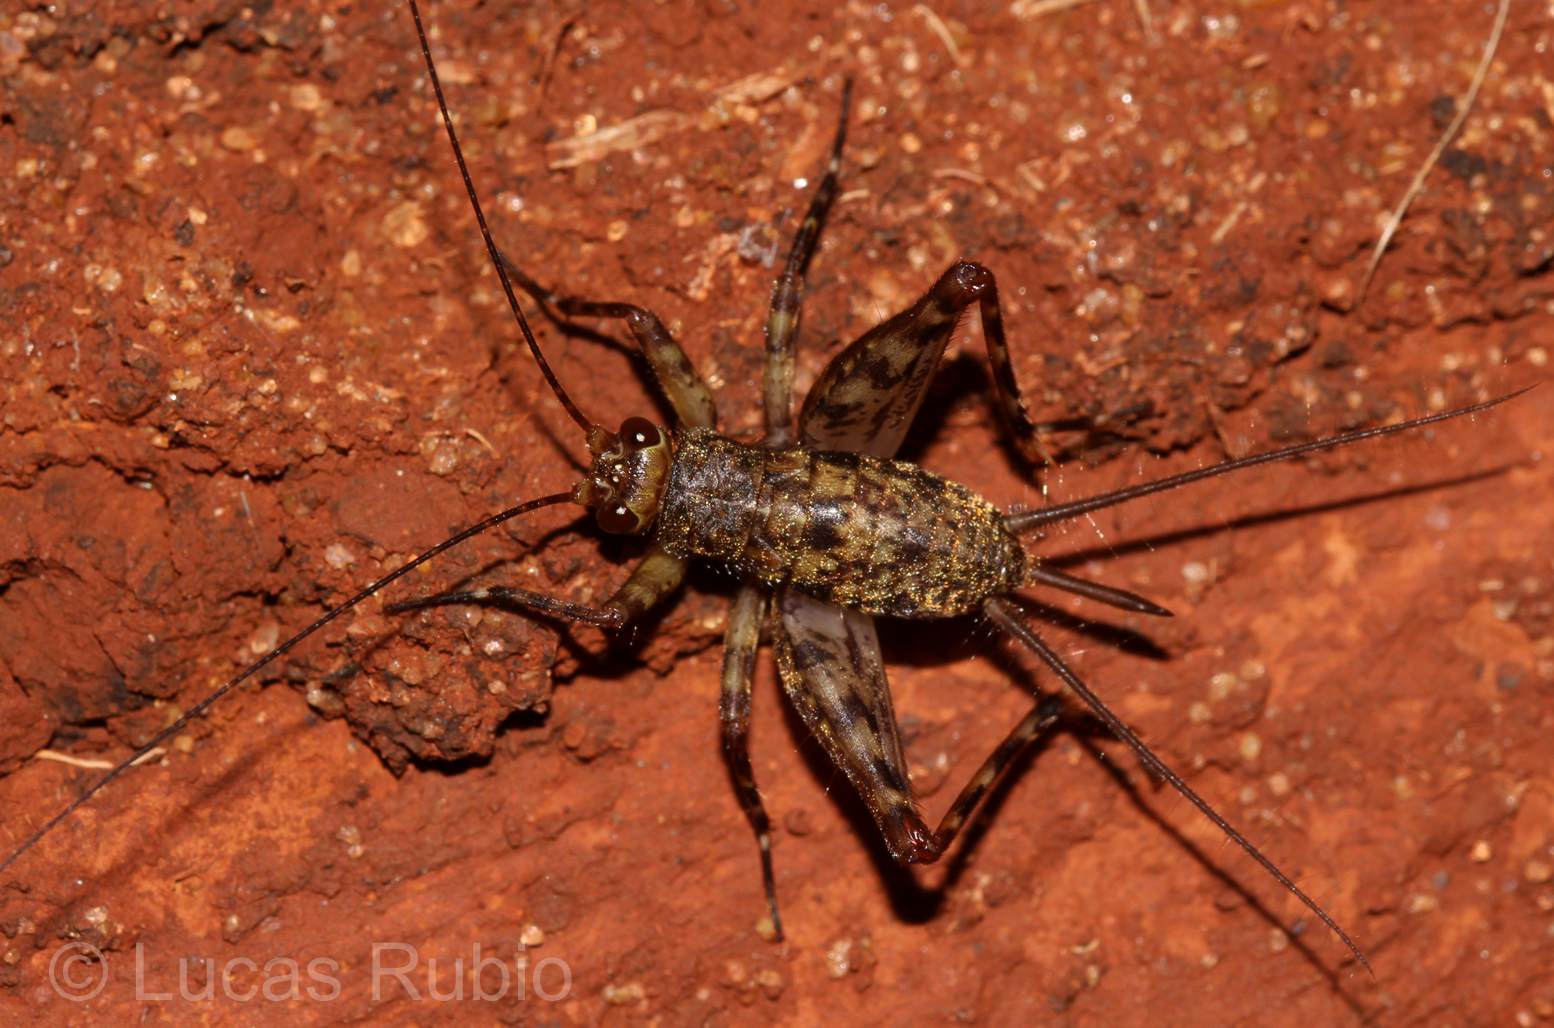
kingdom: Animalia
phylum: Arthropoda
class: Insecta
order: Orthoptera
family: Phalangopsidae
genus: Ubiquepuella
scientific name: Ubiquepuella telytokous
